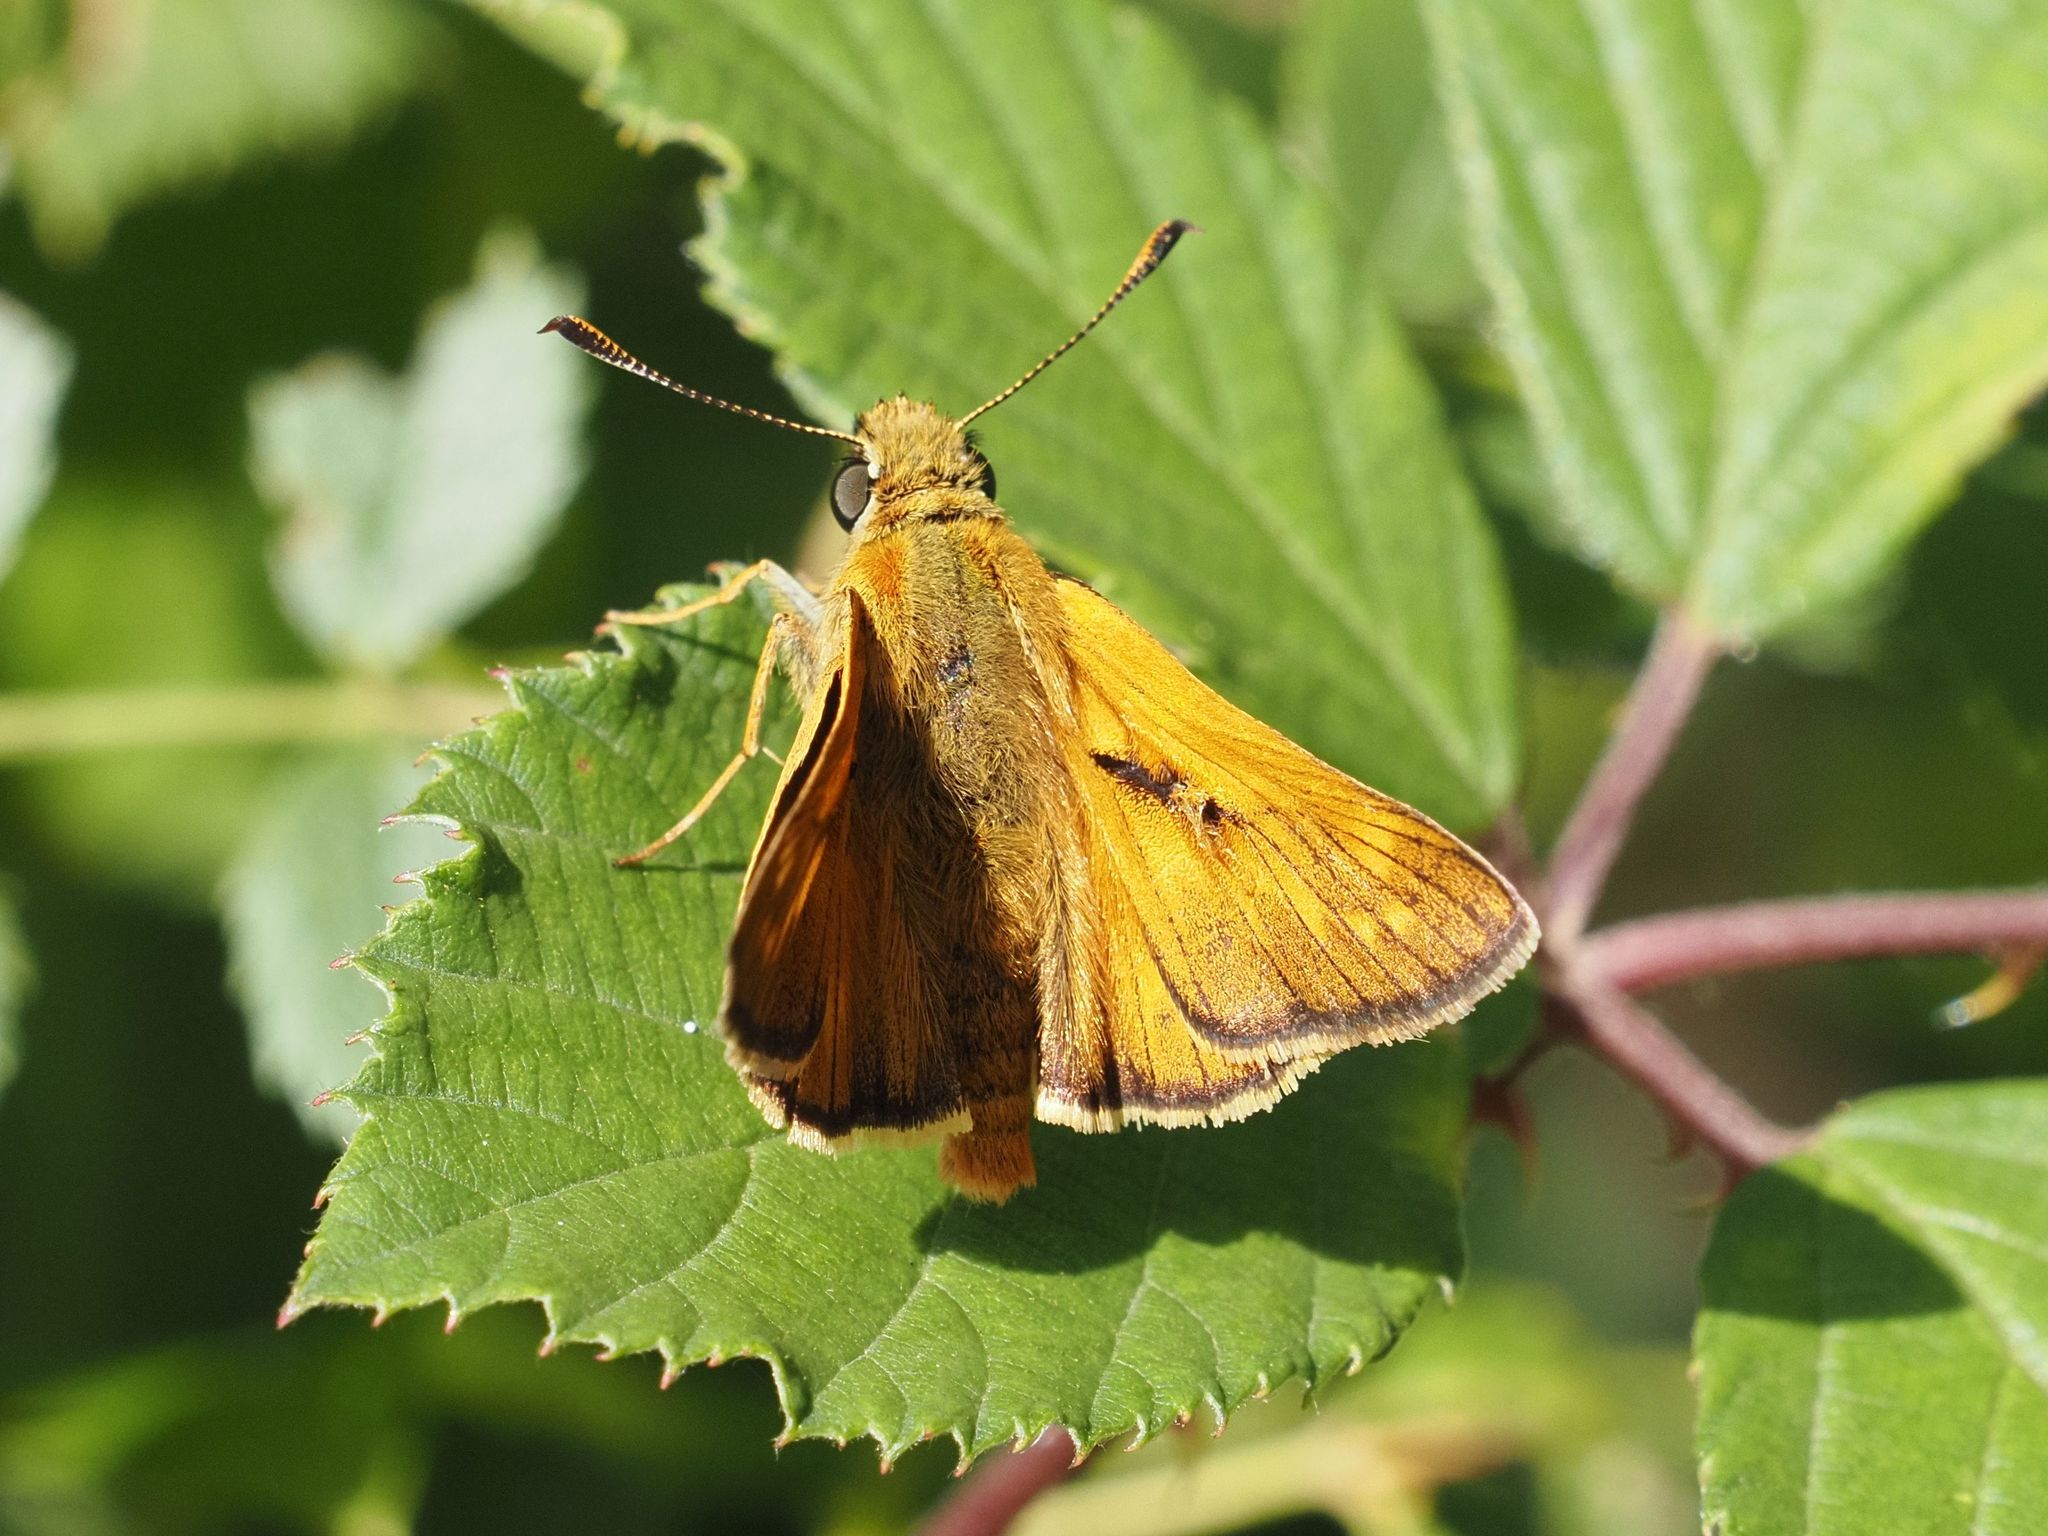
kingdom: Animalia
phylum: Arthropoda
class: Insecta
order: Lepidoptera
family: Hesperiidae
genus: Ochlodes
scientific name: Ochlodes venata
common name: Large skipper
